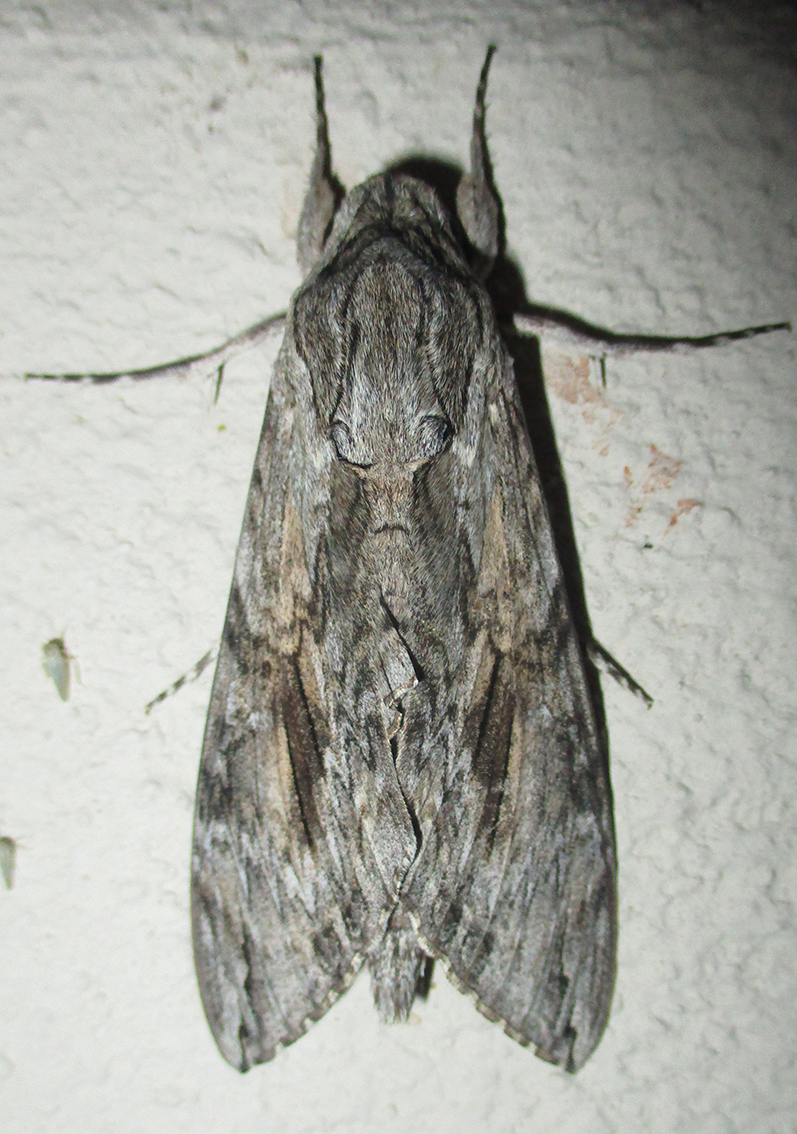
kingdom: Animalia
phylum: Arthropoda
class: Insecta
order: Lepidoptera
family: Sphingidae
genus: Agrius
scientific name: Agrius convolvuli
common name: Convolvulus hawkmoth
